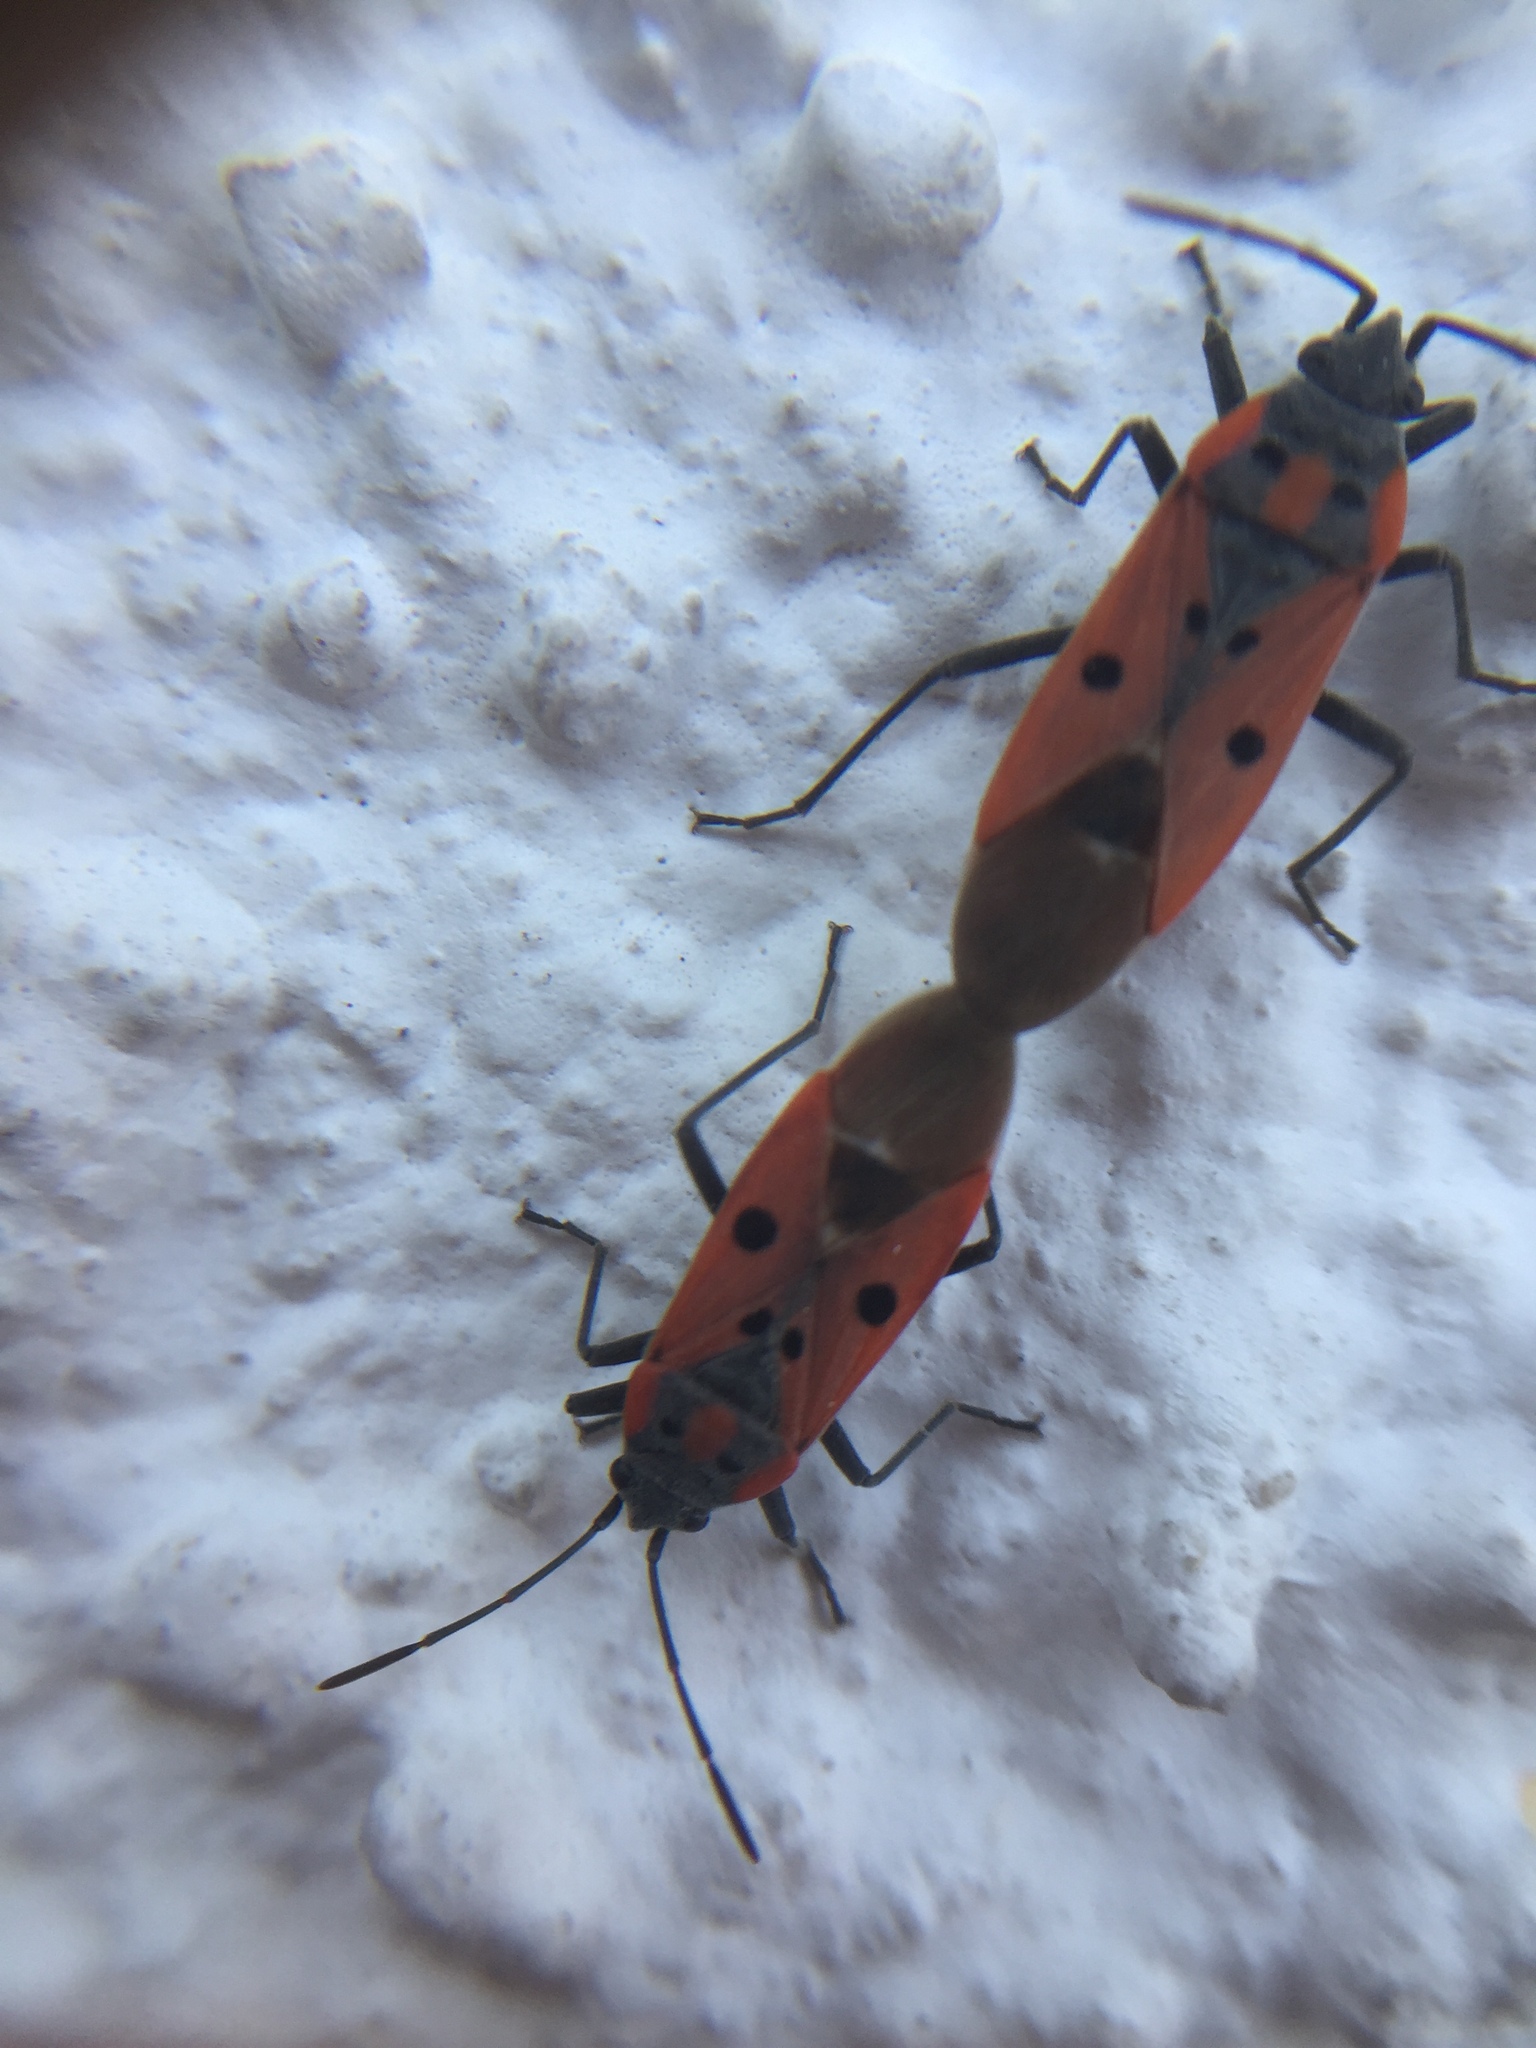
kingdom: Animalia
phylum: Arthropoda
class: Insecta
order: Hemiptera
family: Lygaeidae
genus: Lygaeus
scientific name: Lygaeus creticus
